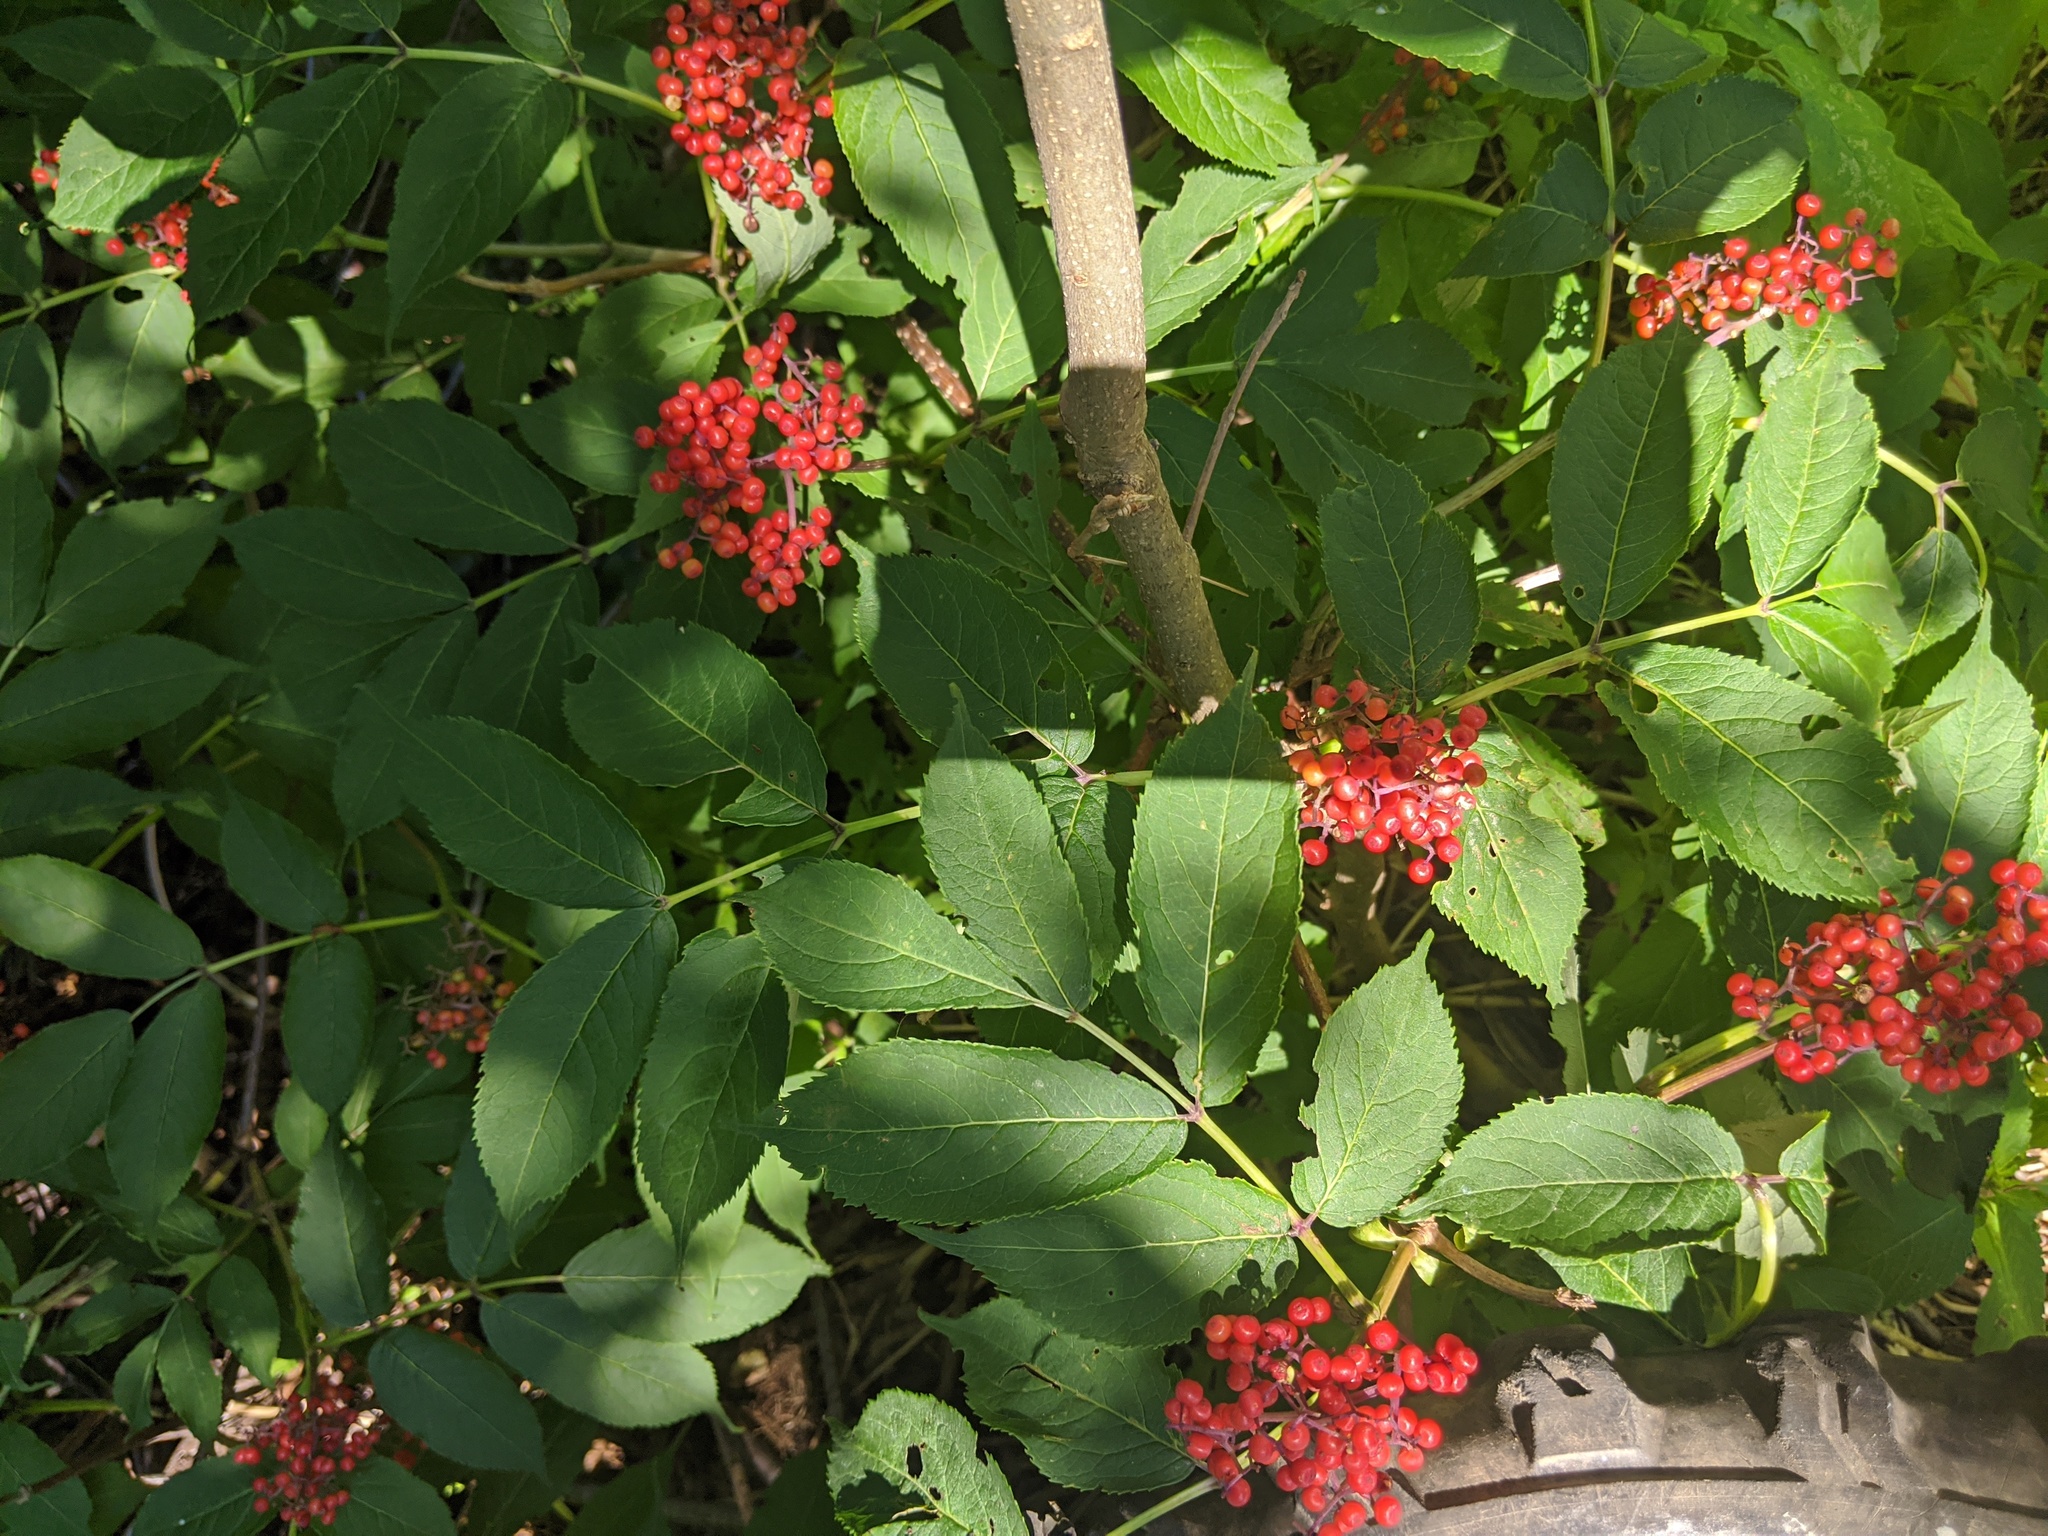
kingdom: Plantae
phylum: Tracheophyta
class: Magnoliopsida
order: Dipsacales
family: Viburnaceae
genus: Sambucus
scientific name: Sambucus racemosa
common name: Red-berried elder
